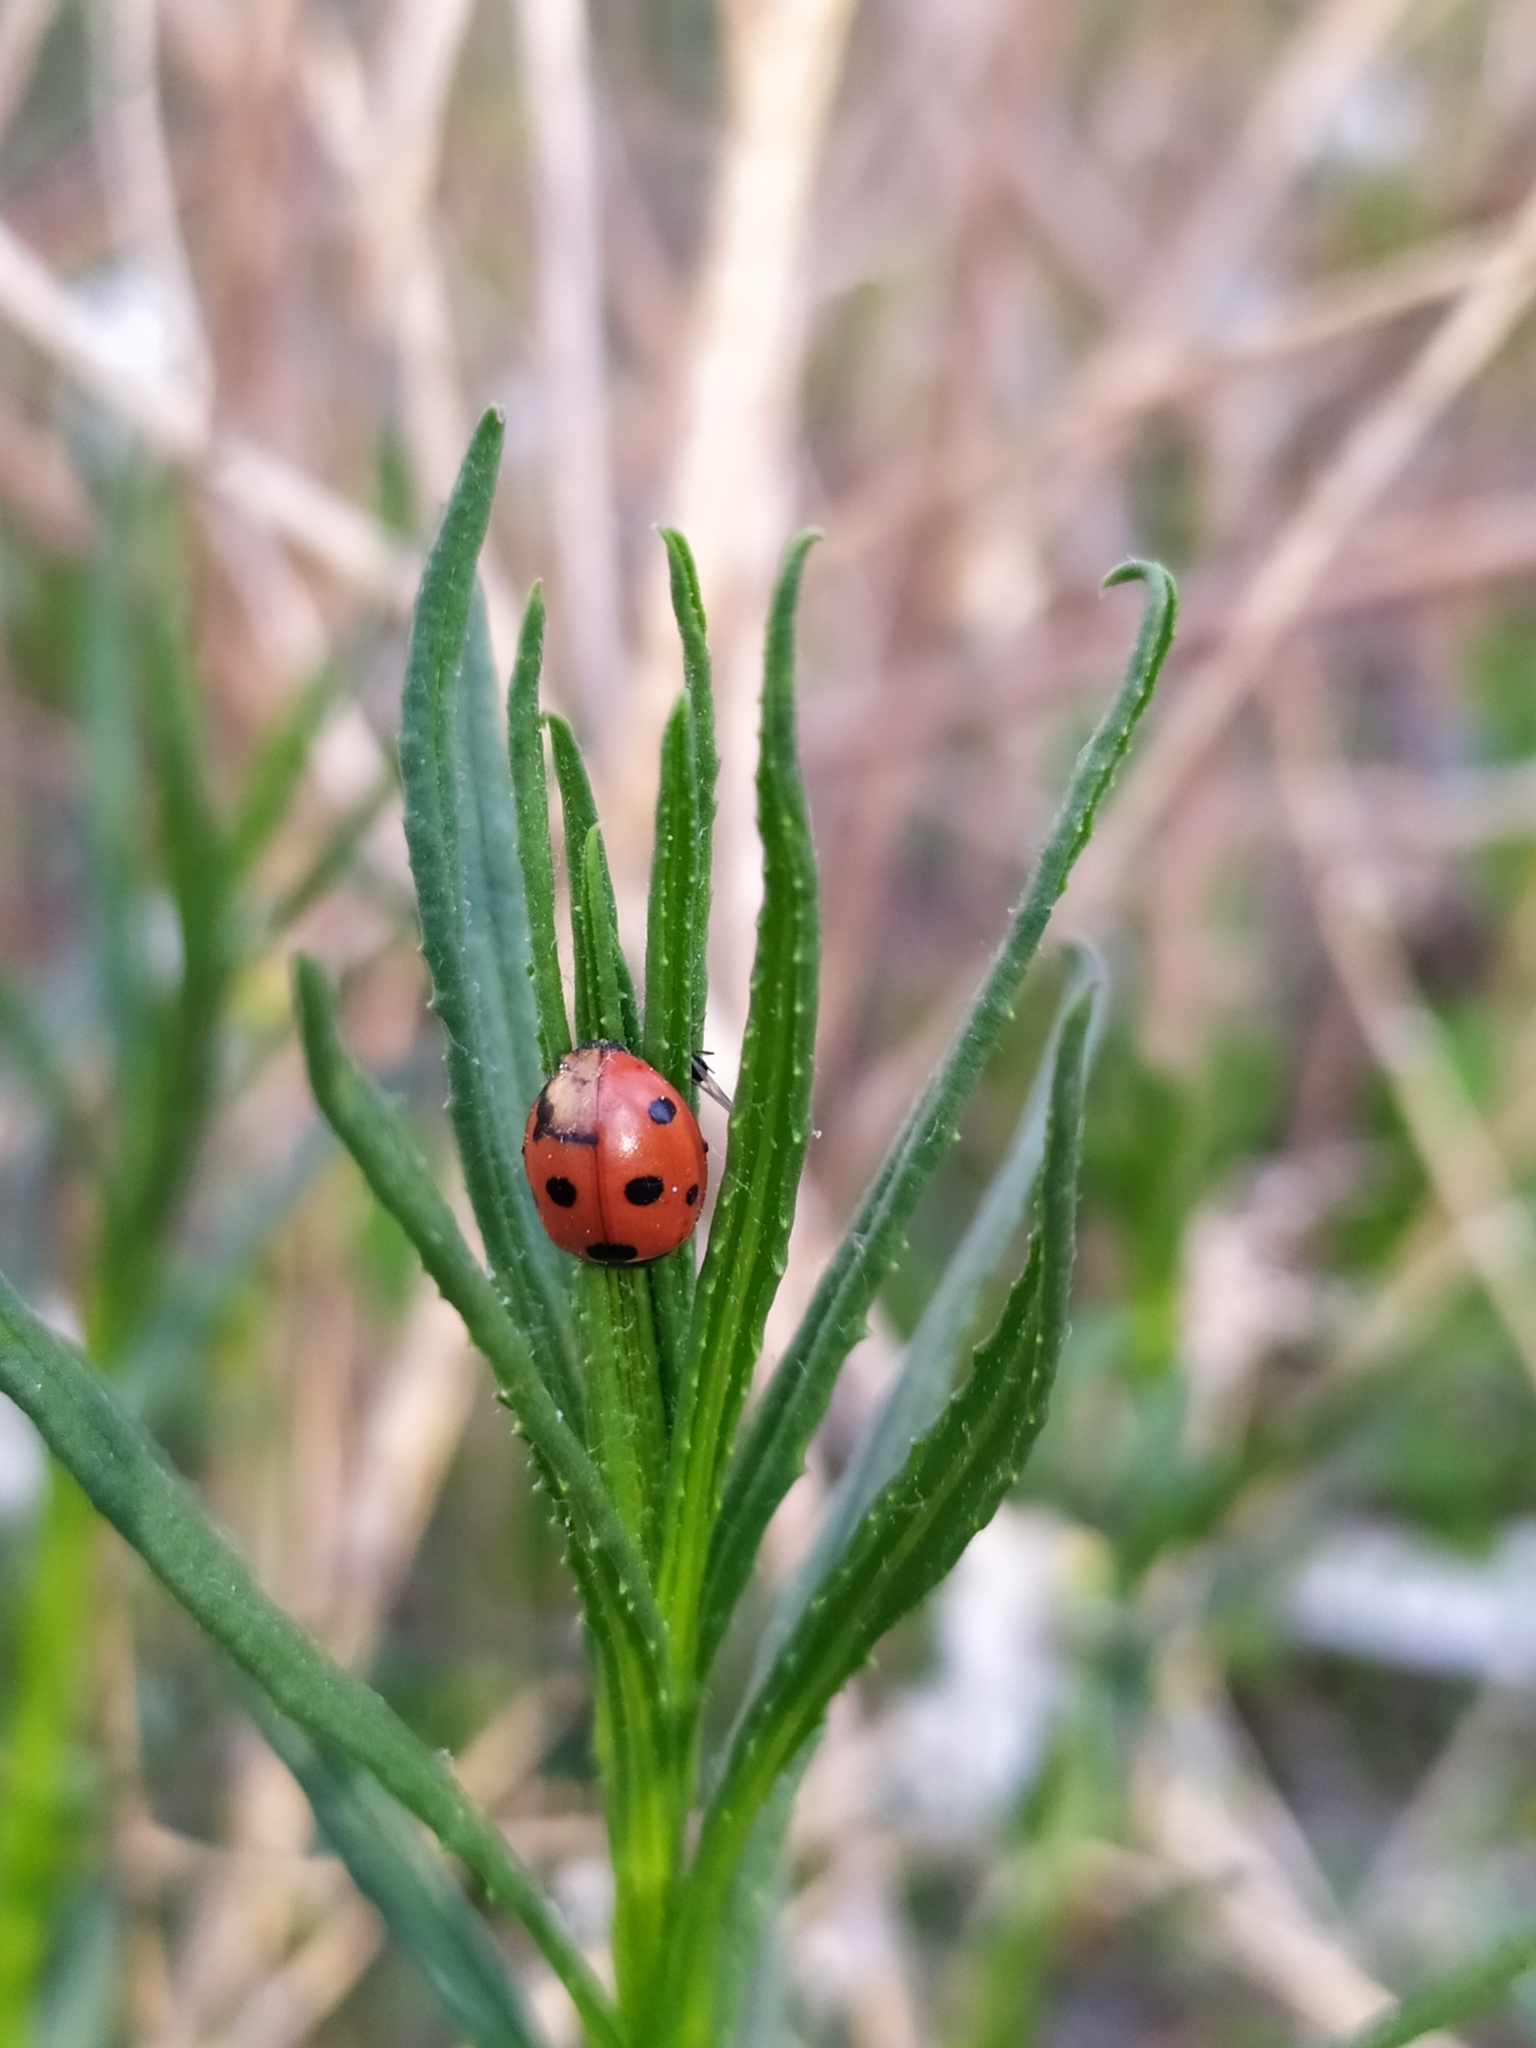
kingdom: Animalia
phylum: Arthropoda
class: Insecta
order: Coleoptera
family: Coccinellidae
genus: Coccinella
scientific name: Coccinella septempunctata
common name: Sevenspotted lady beetle
